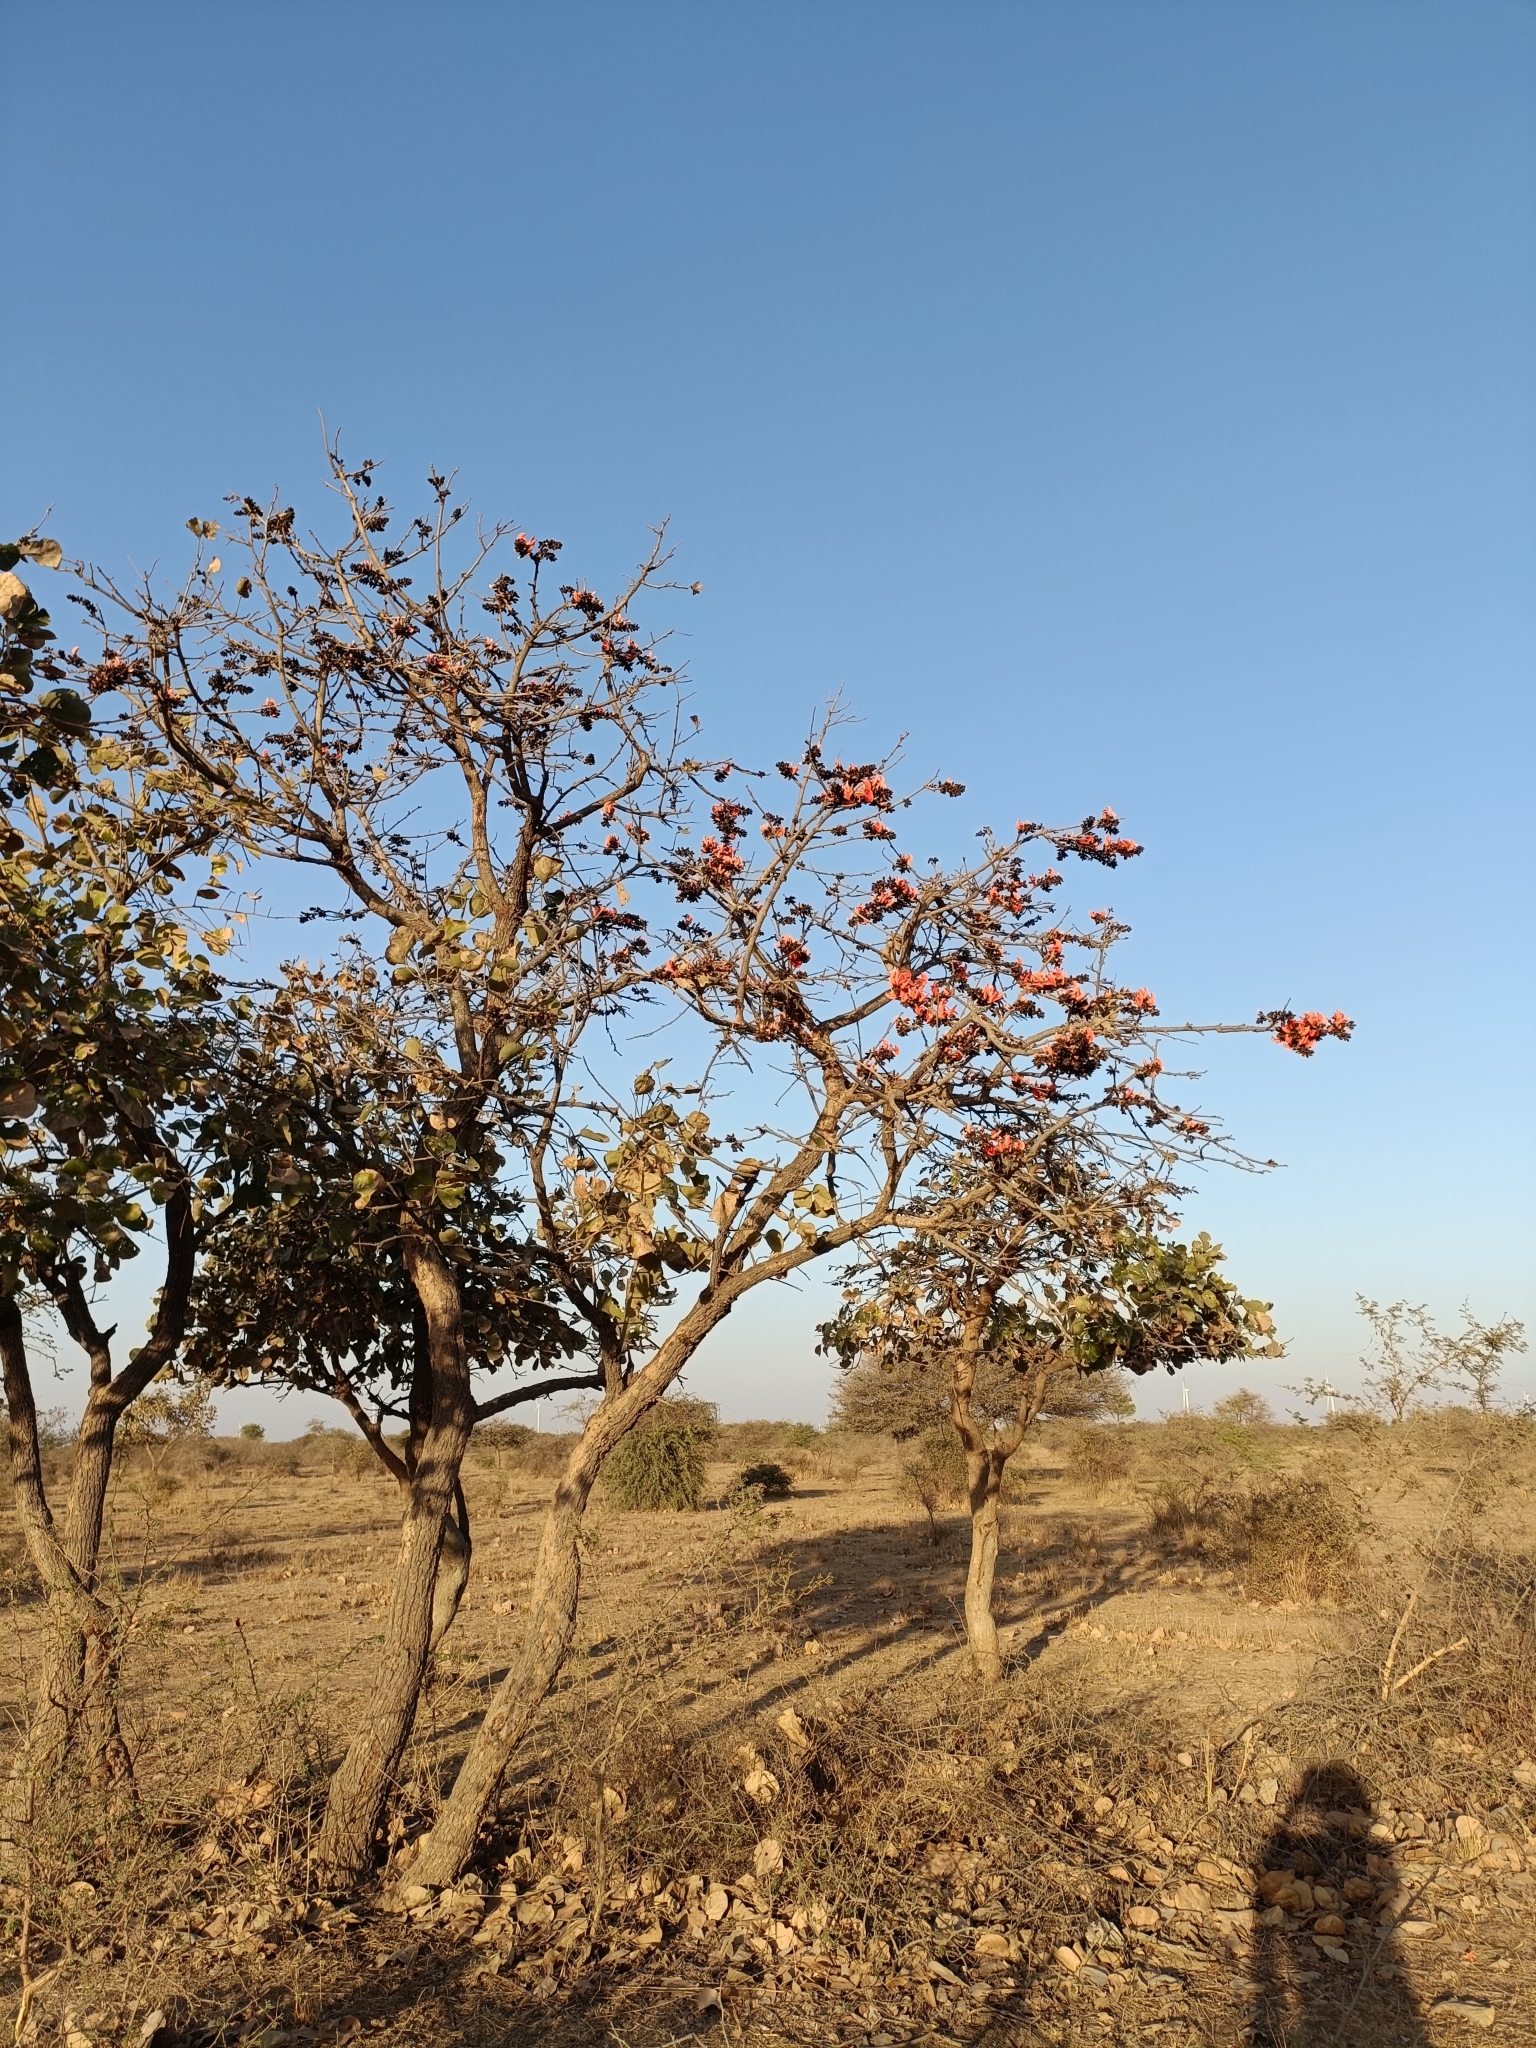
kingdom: Plantae
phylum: Tracheophyta
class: Magnoliopsida
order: Fabales
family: Fabaceae
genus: Butea
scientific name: Butea monosperma
